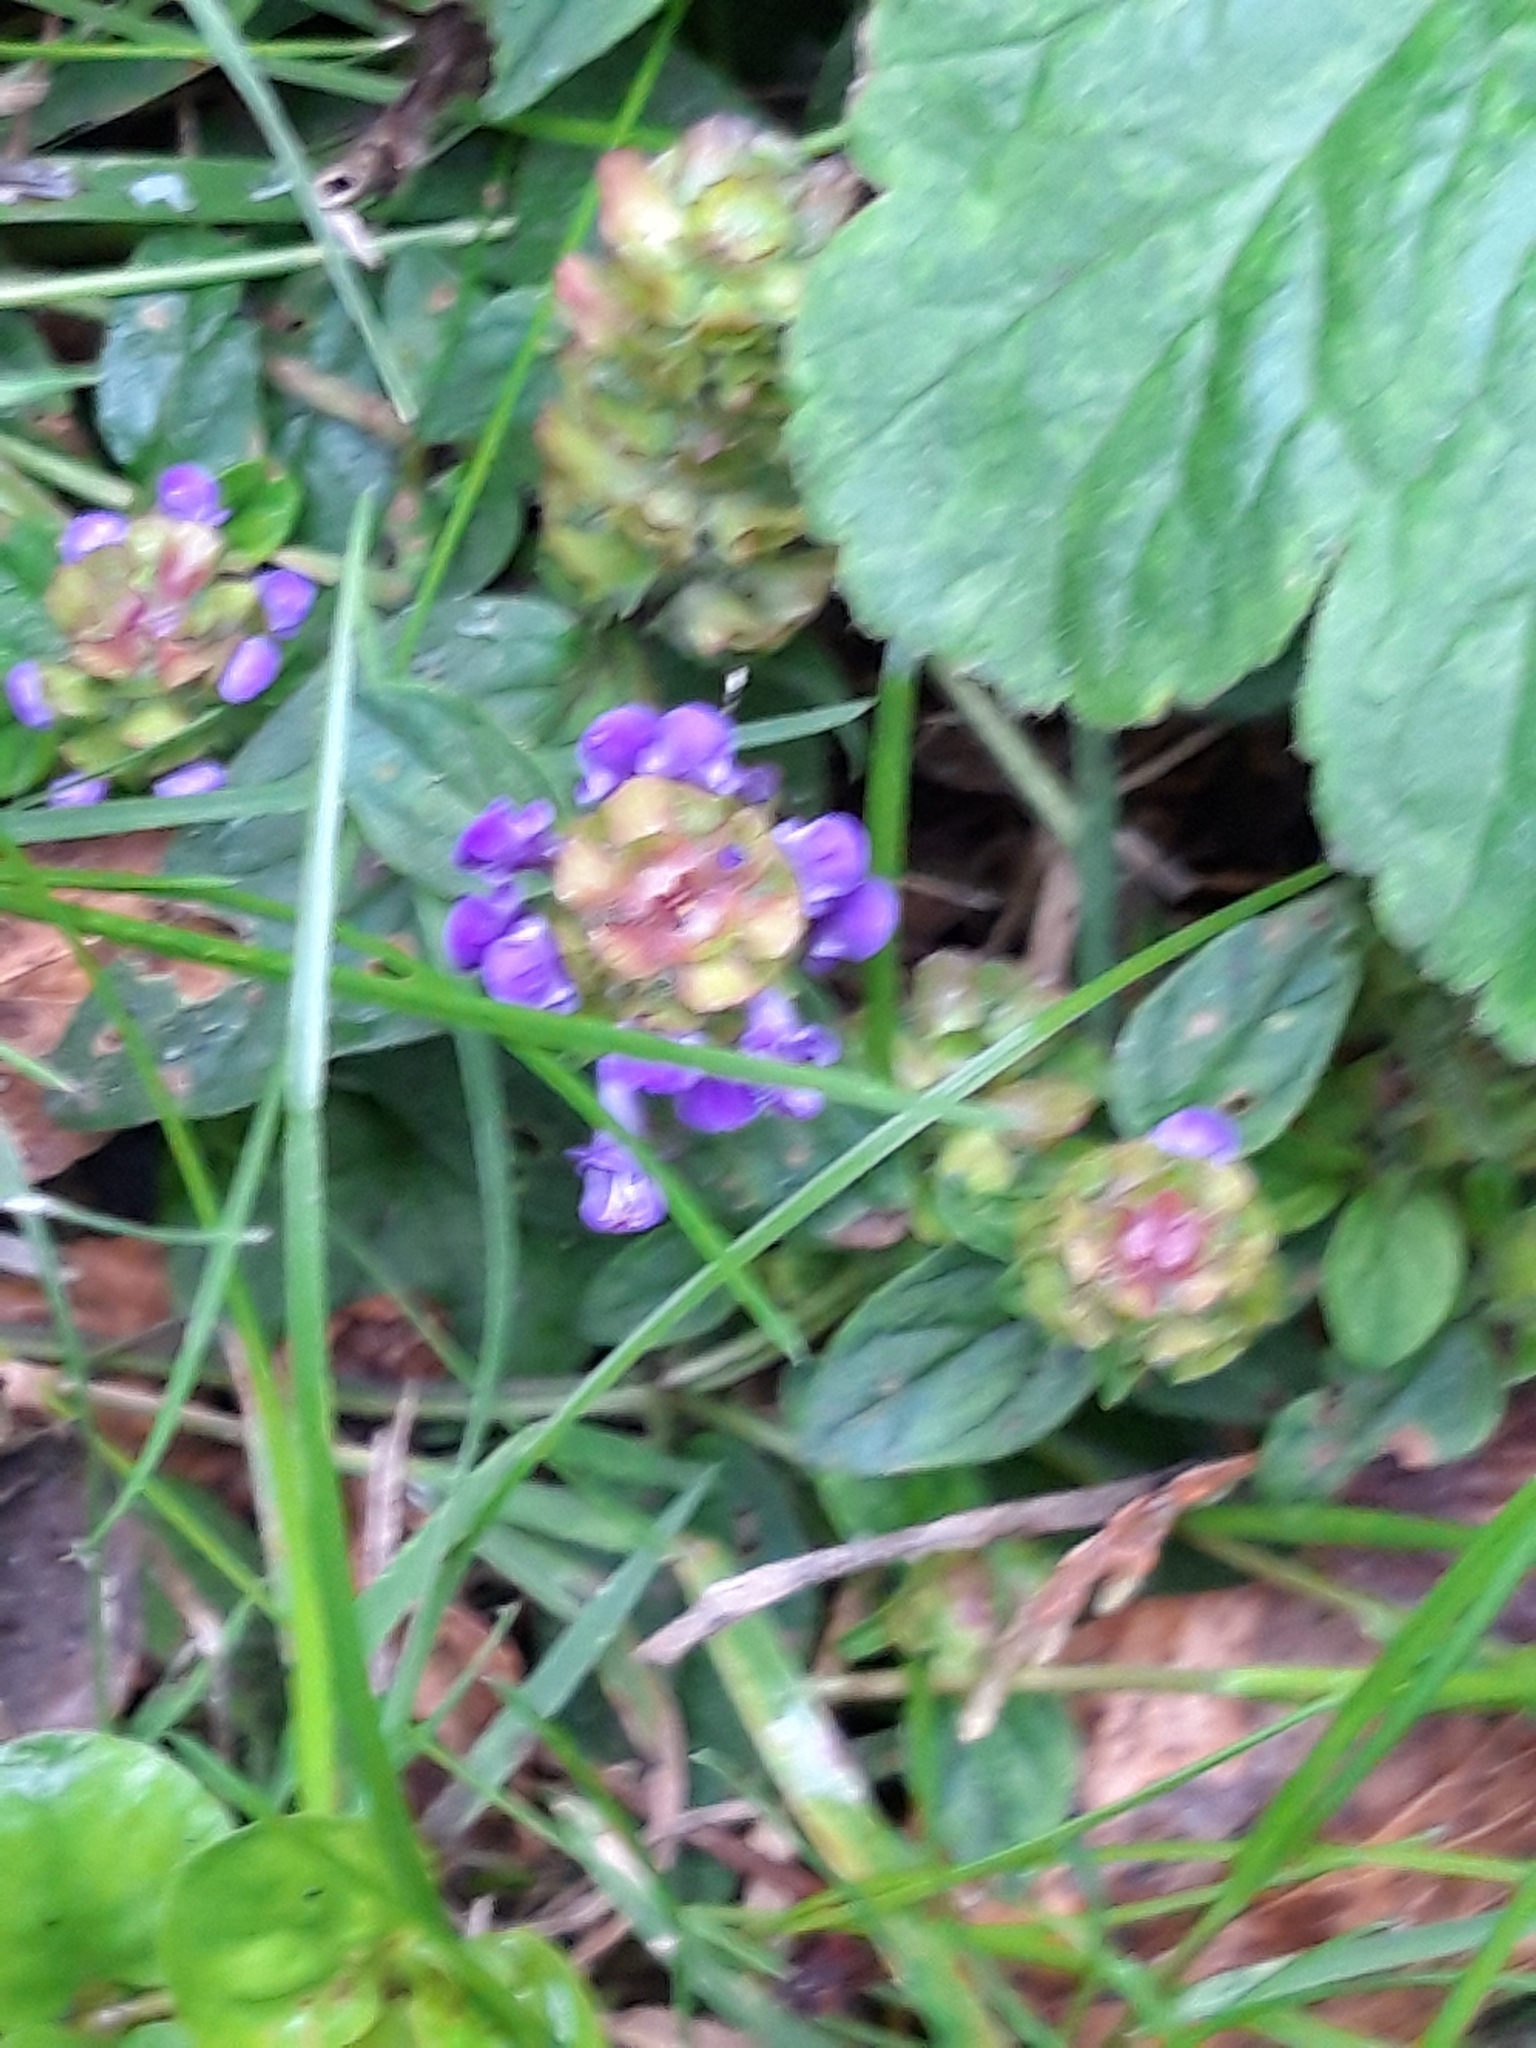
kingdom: Plantae
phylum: Tracheophyta
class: Magnoliopsida
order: Lamiales
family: Lamiaceae
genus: Prunella
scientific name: Prunella vulgaris
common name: Heal-all
